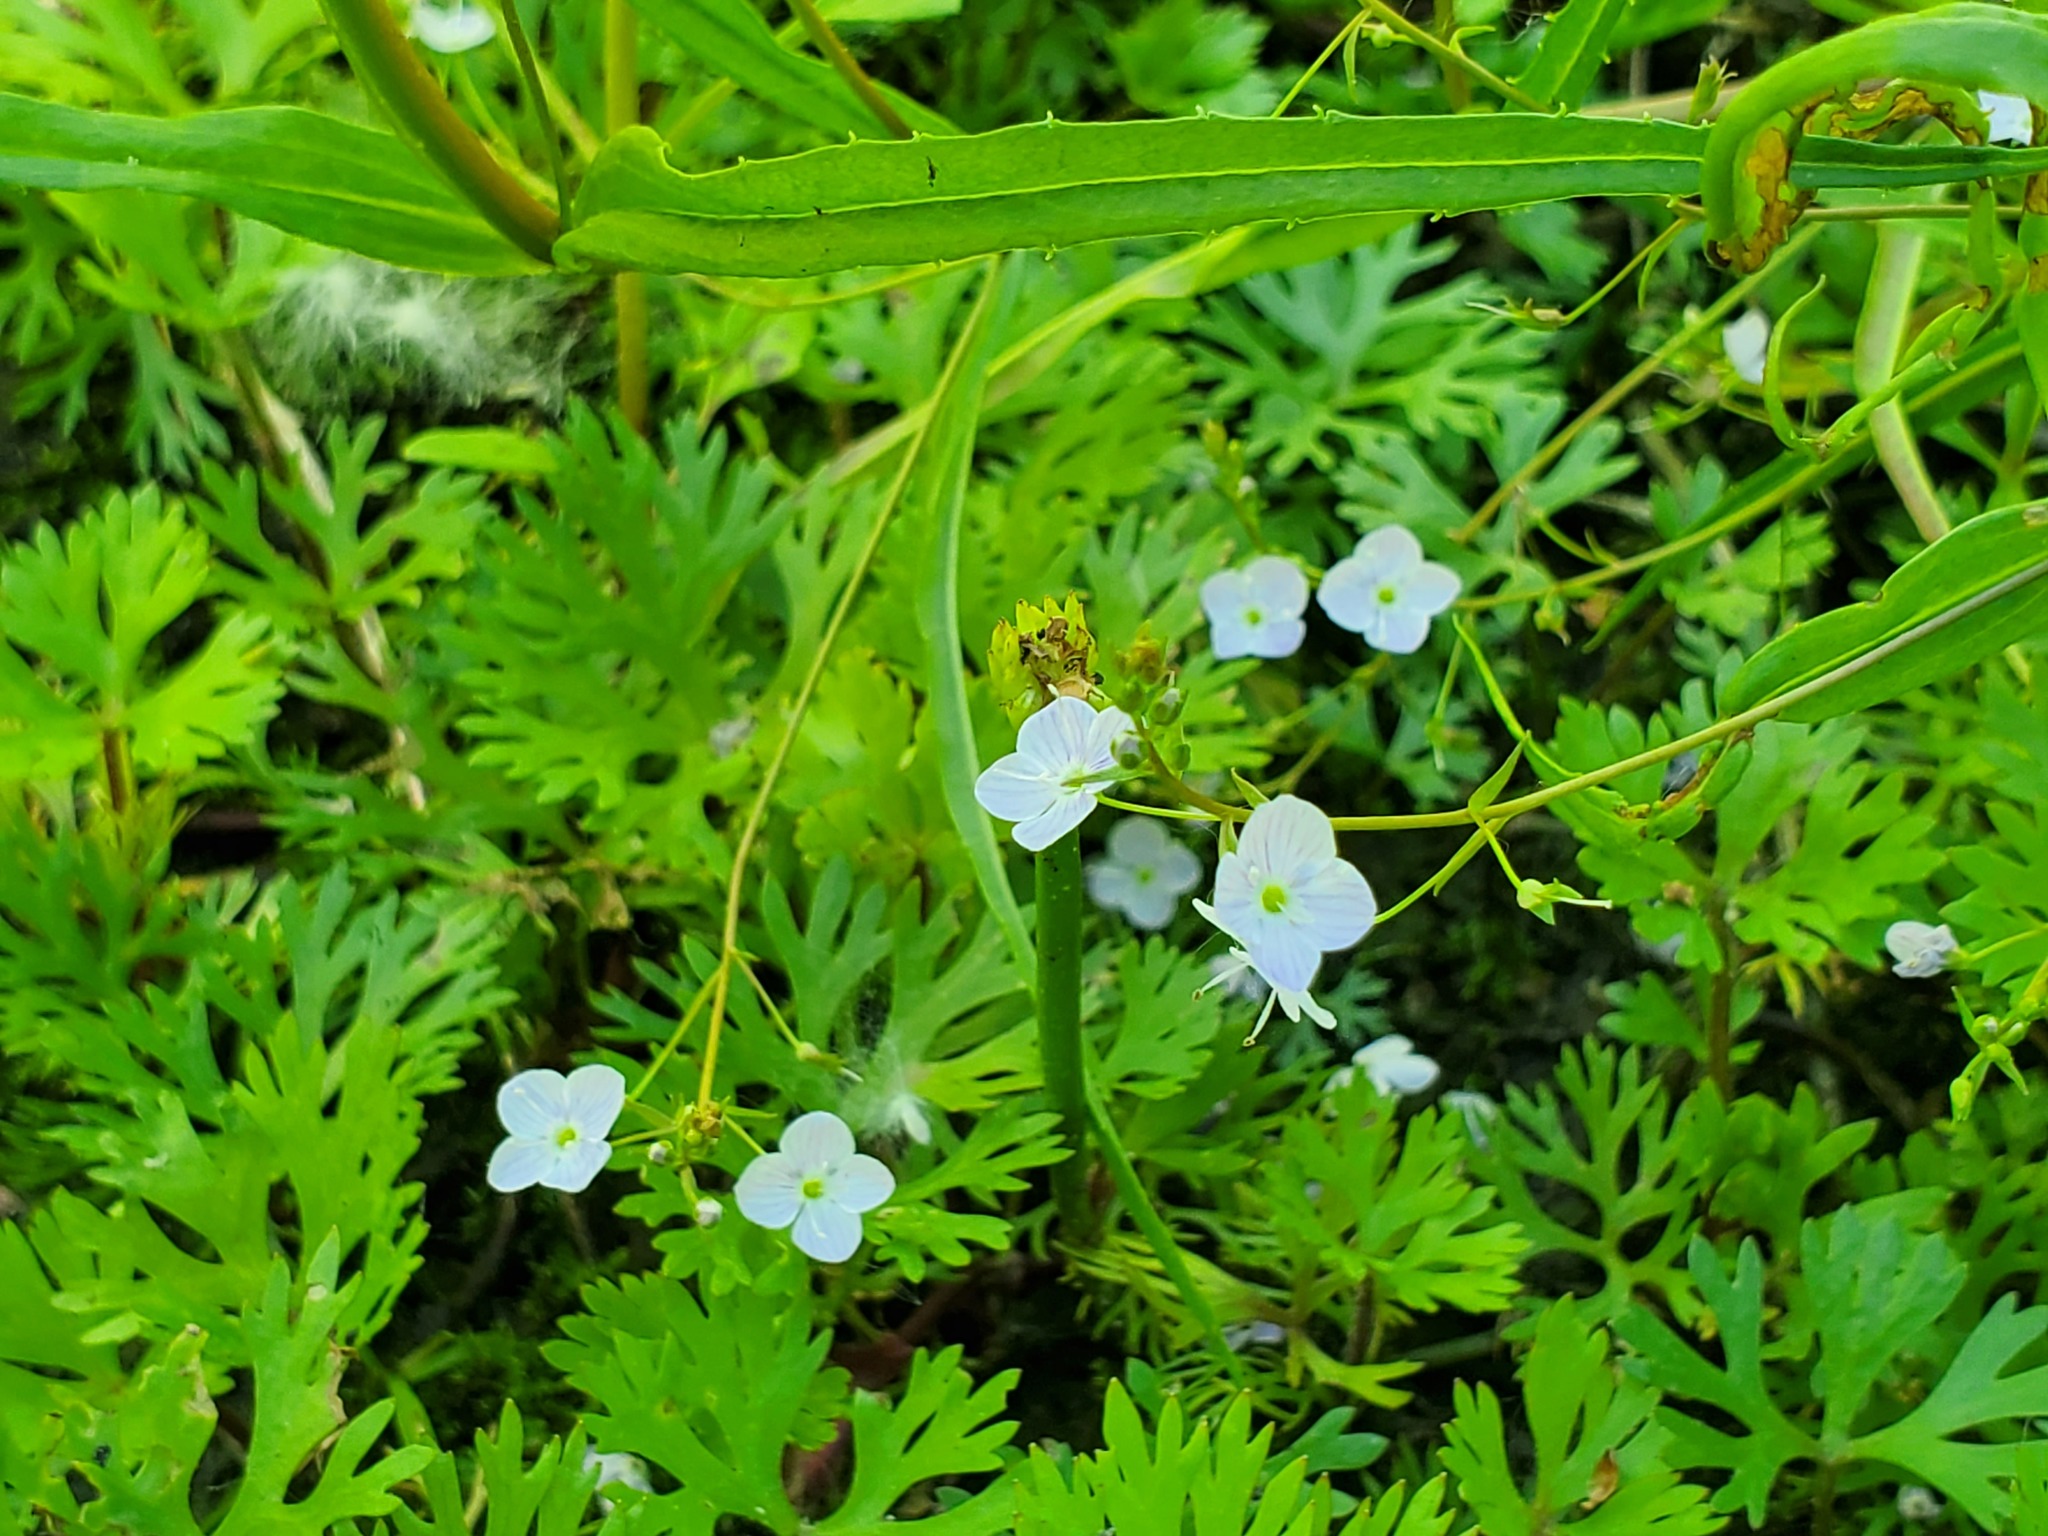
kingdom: Plantae
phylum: Tracheophyta
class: Magnoliopsida
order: Lamiales
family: Plantaginaceae
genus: Veronica
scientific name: Veronica scutellata
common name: Marsh speedwell
